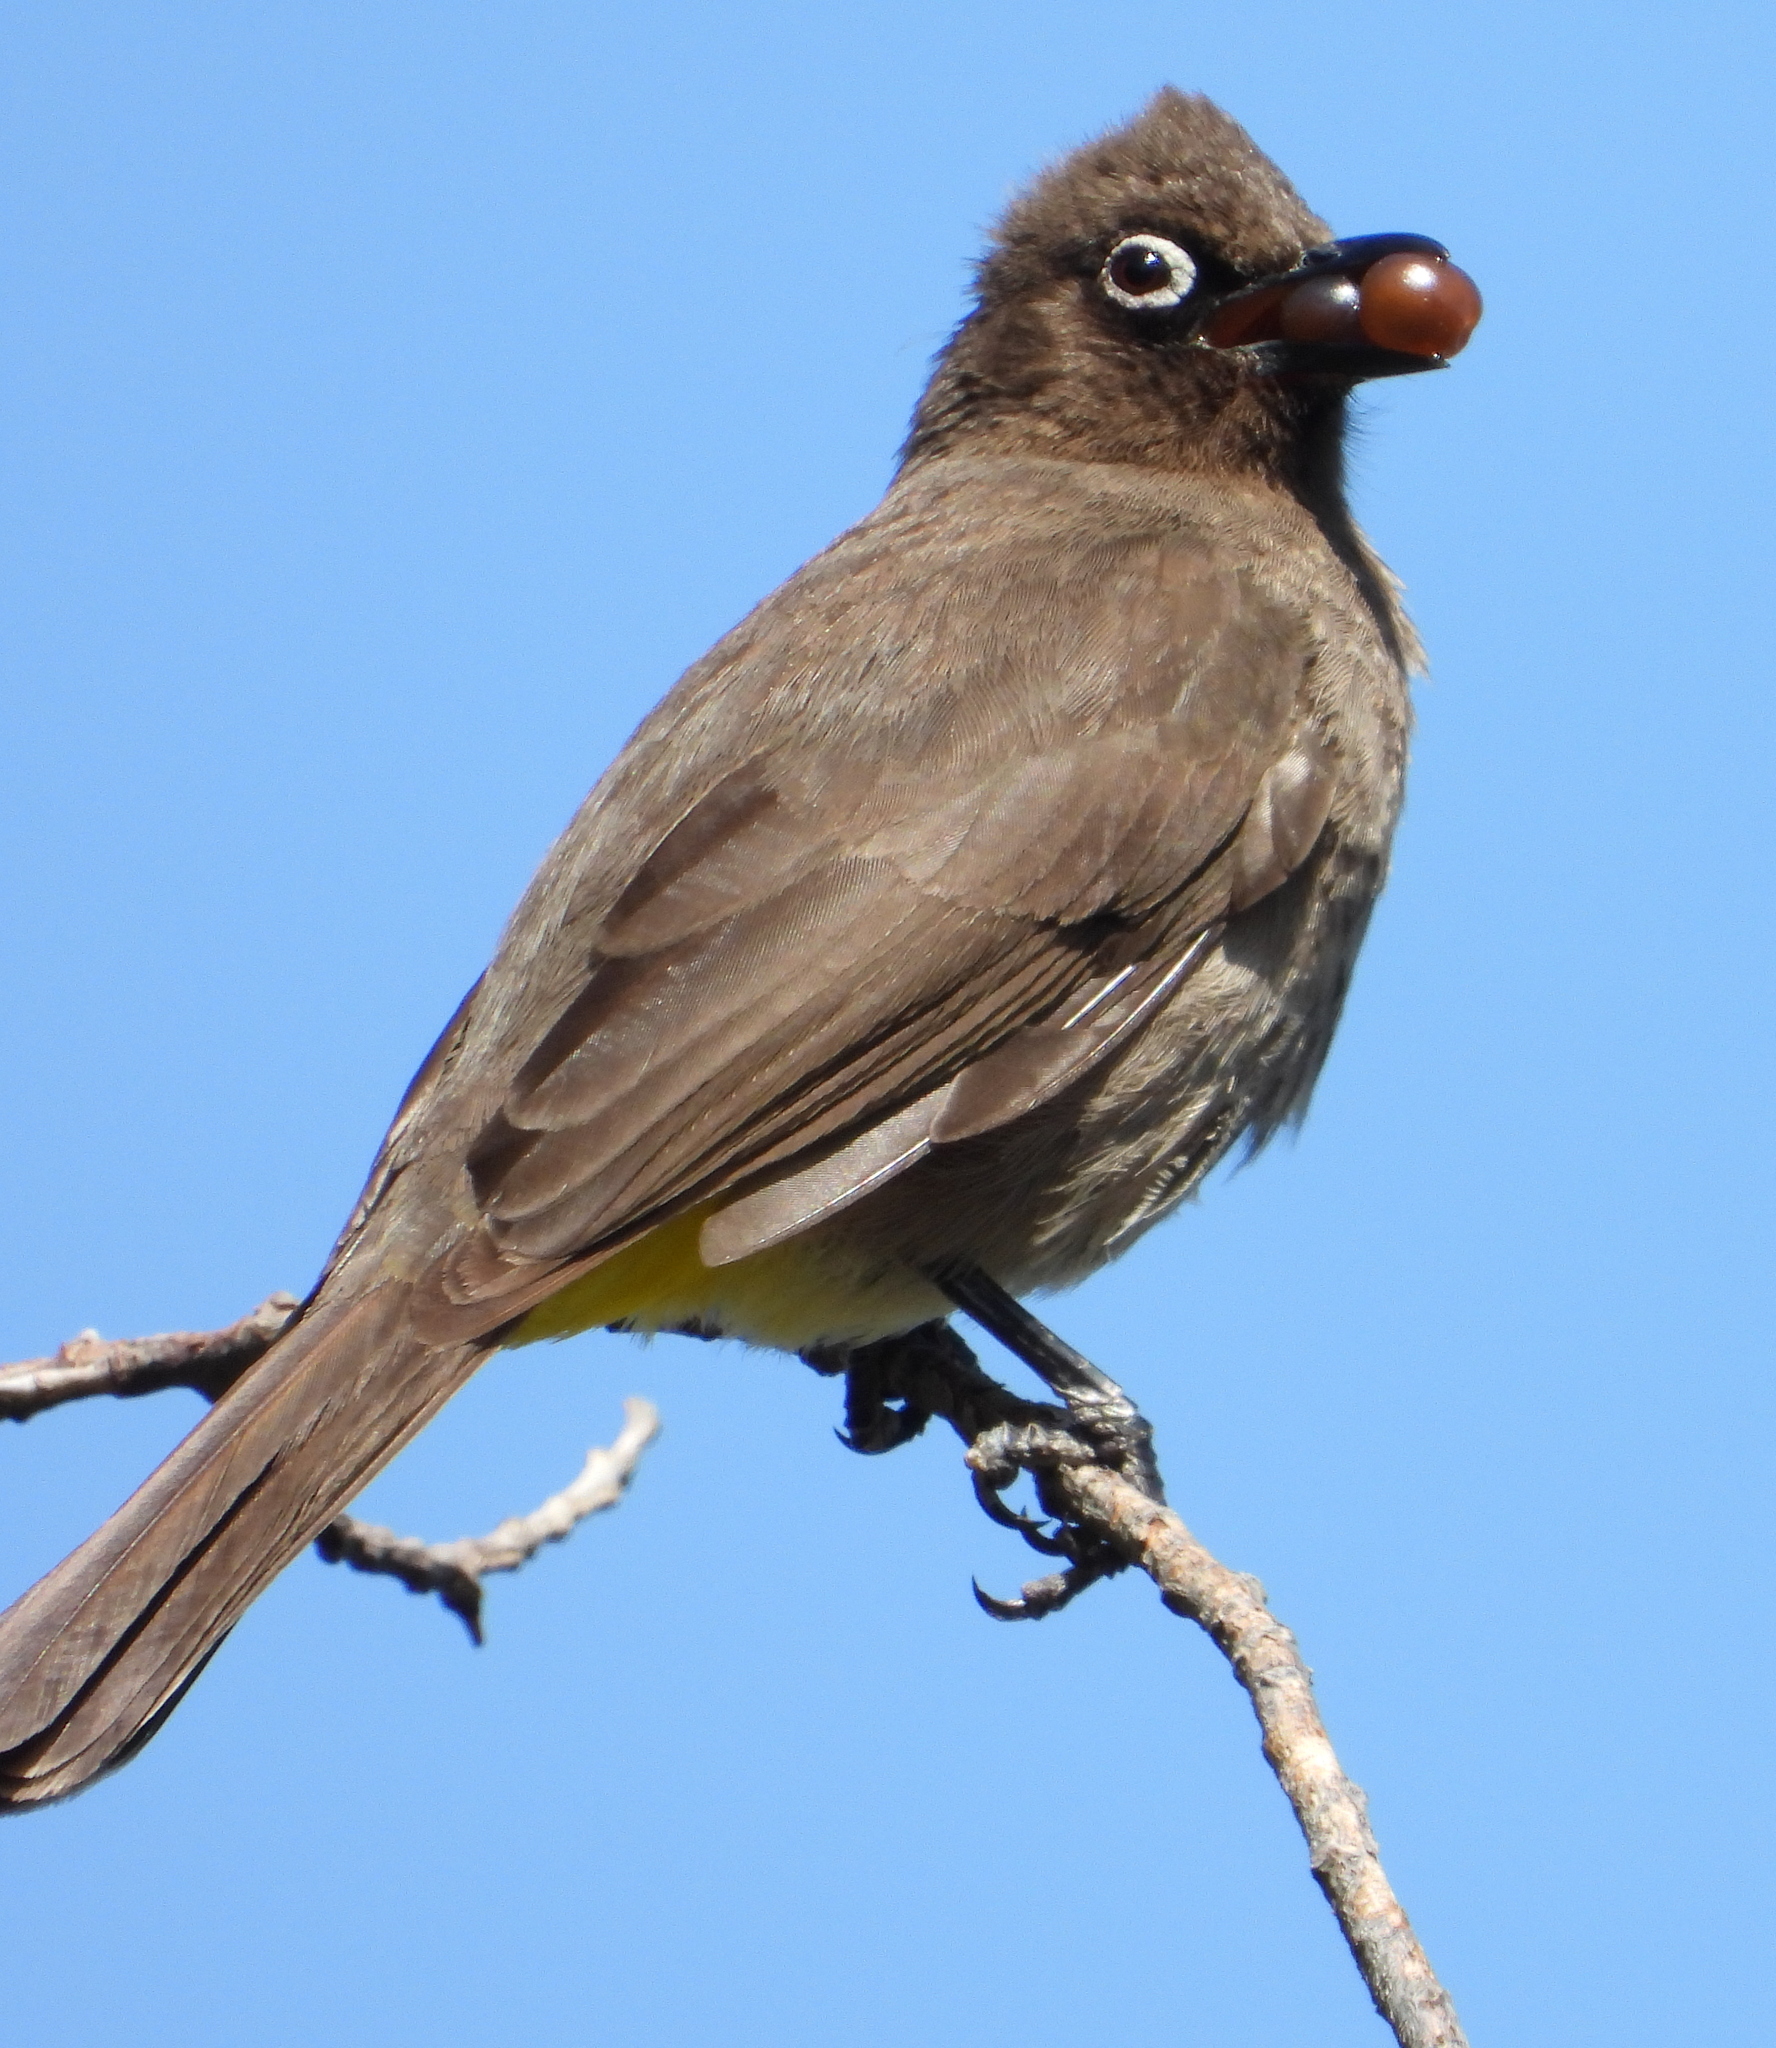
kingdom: Animalia
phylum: Chordata
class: Aves
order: Passeriformes
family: Pycnonotidae
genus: Pycnonotus
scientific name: Pycnonotus capensis
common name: Cape bulbul
